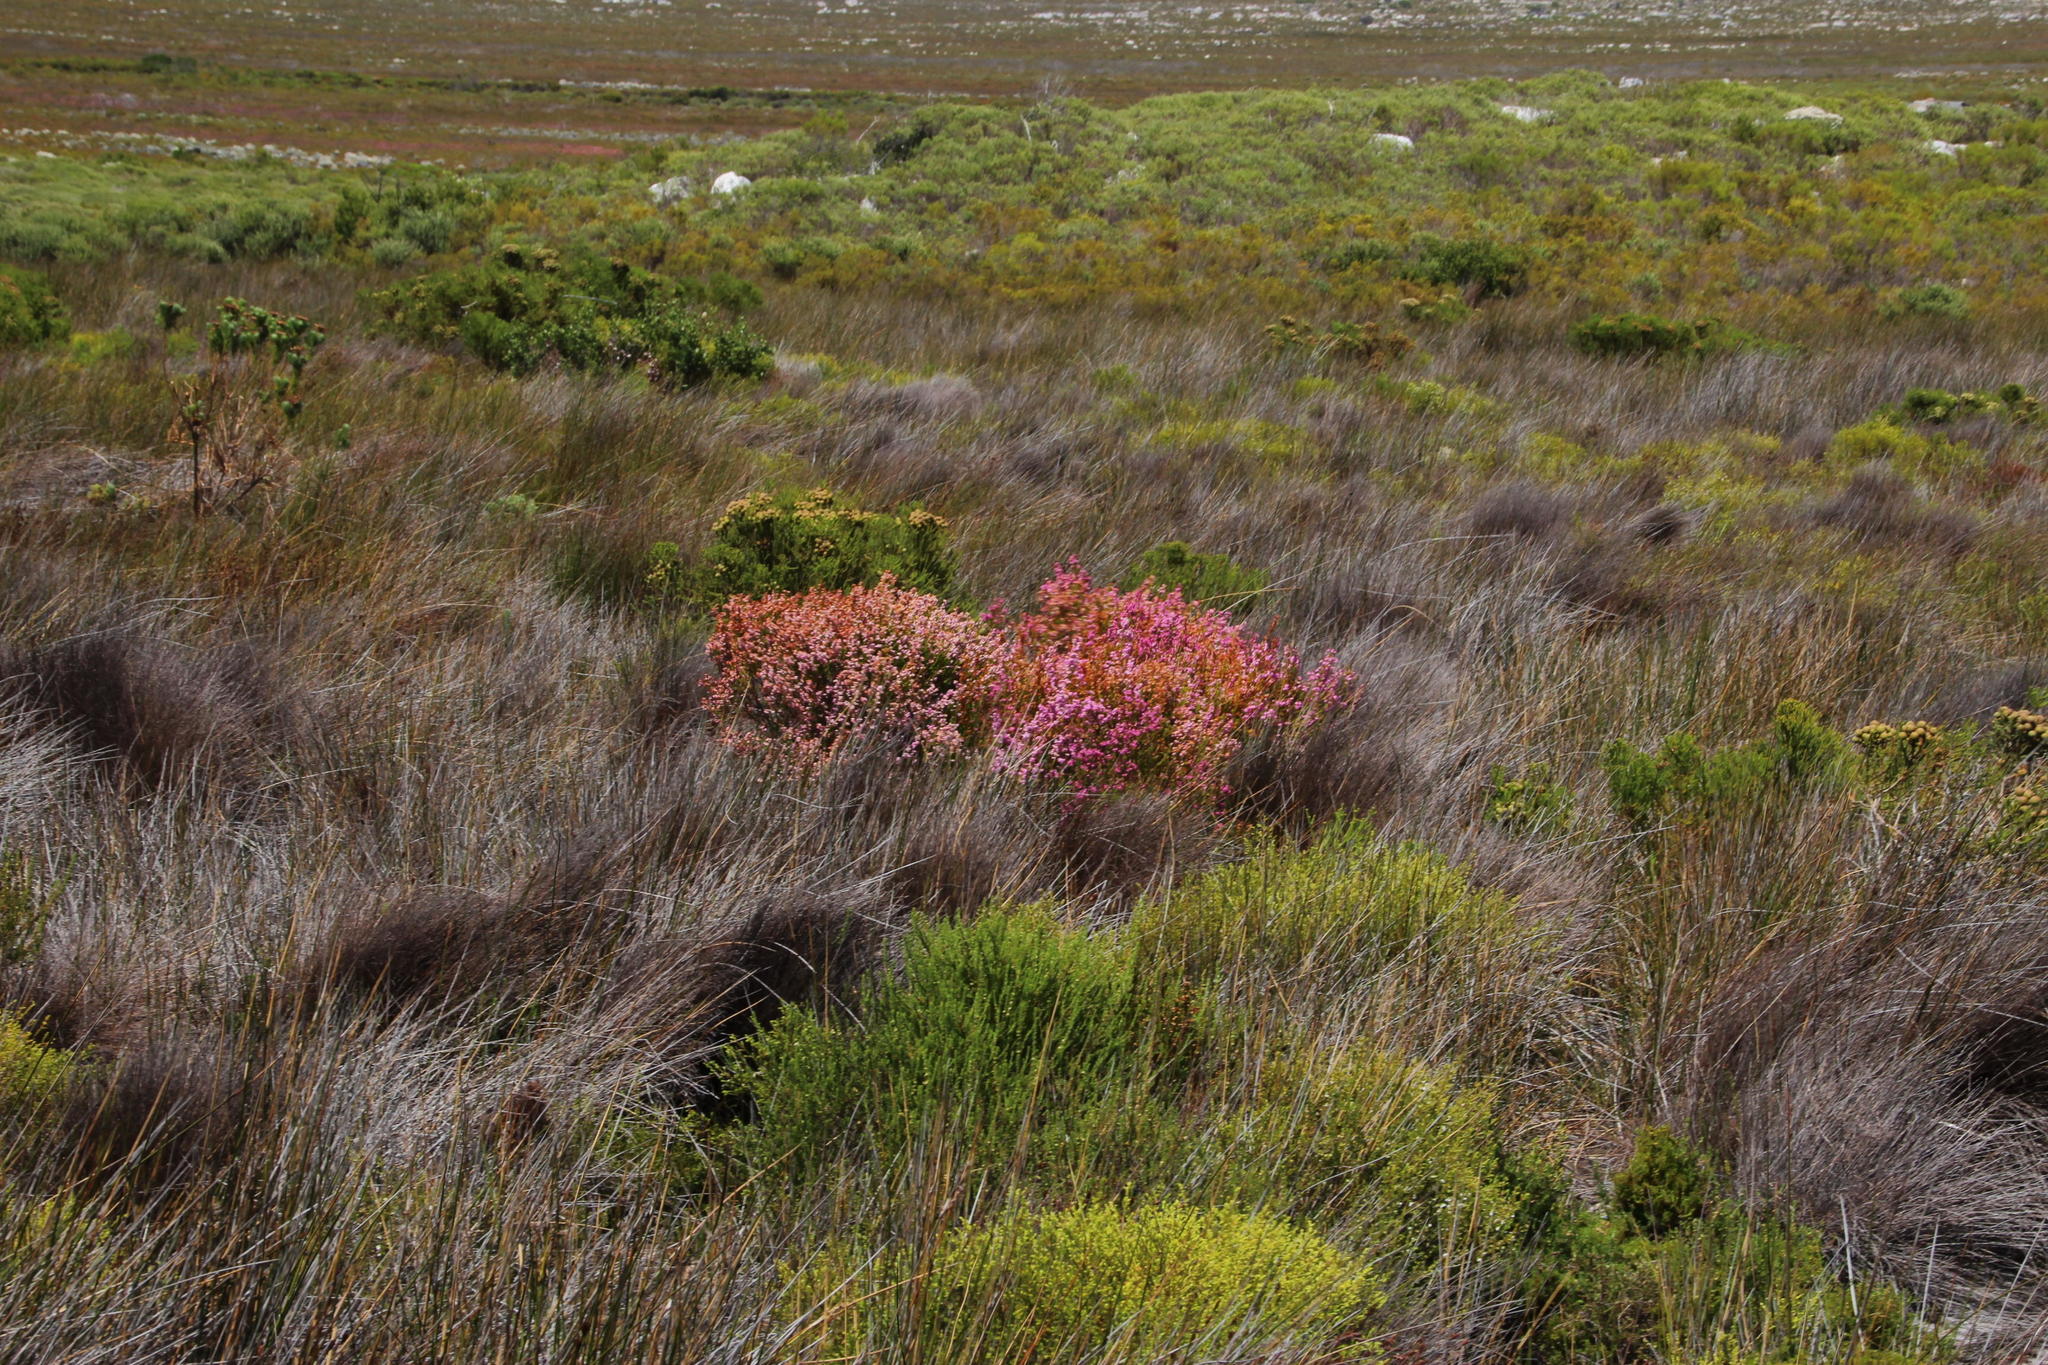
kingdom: Plantae
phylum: Tracheophyta
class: Magnoliopsida
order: Ericales
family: Ericaceae
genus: Erica
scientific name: Erica laeta
